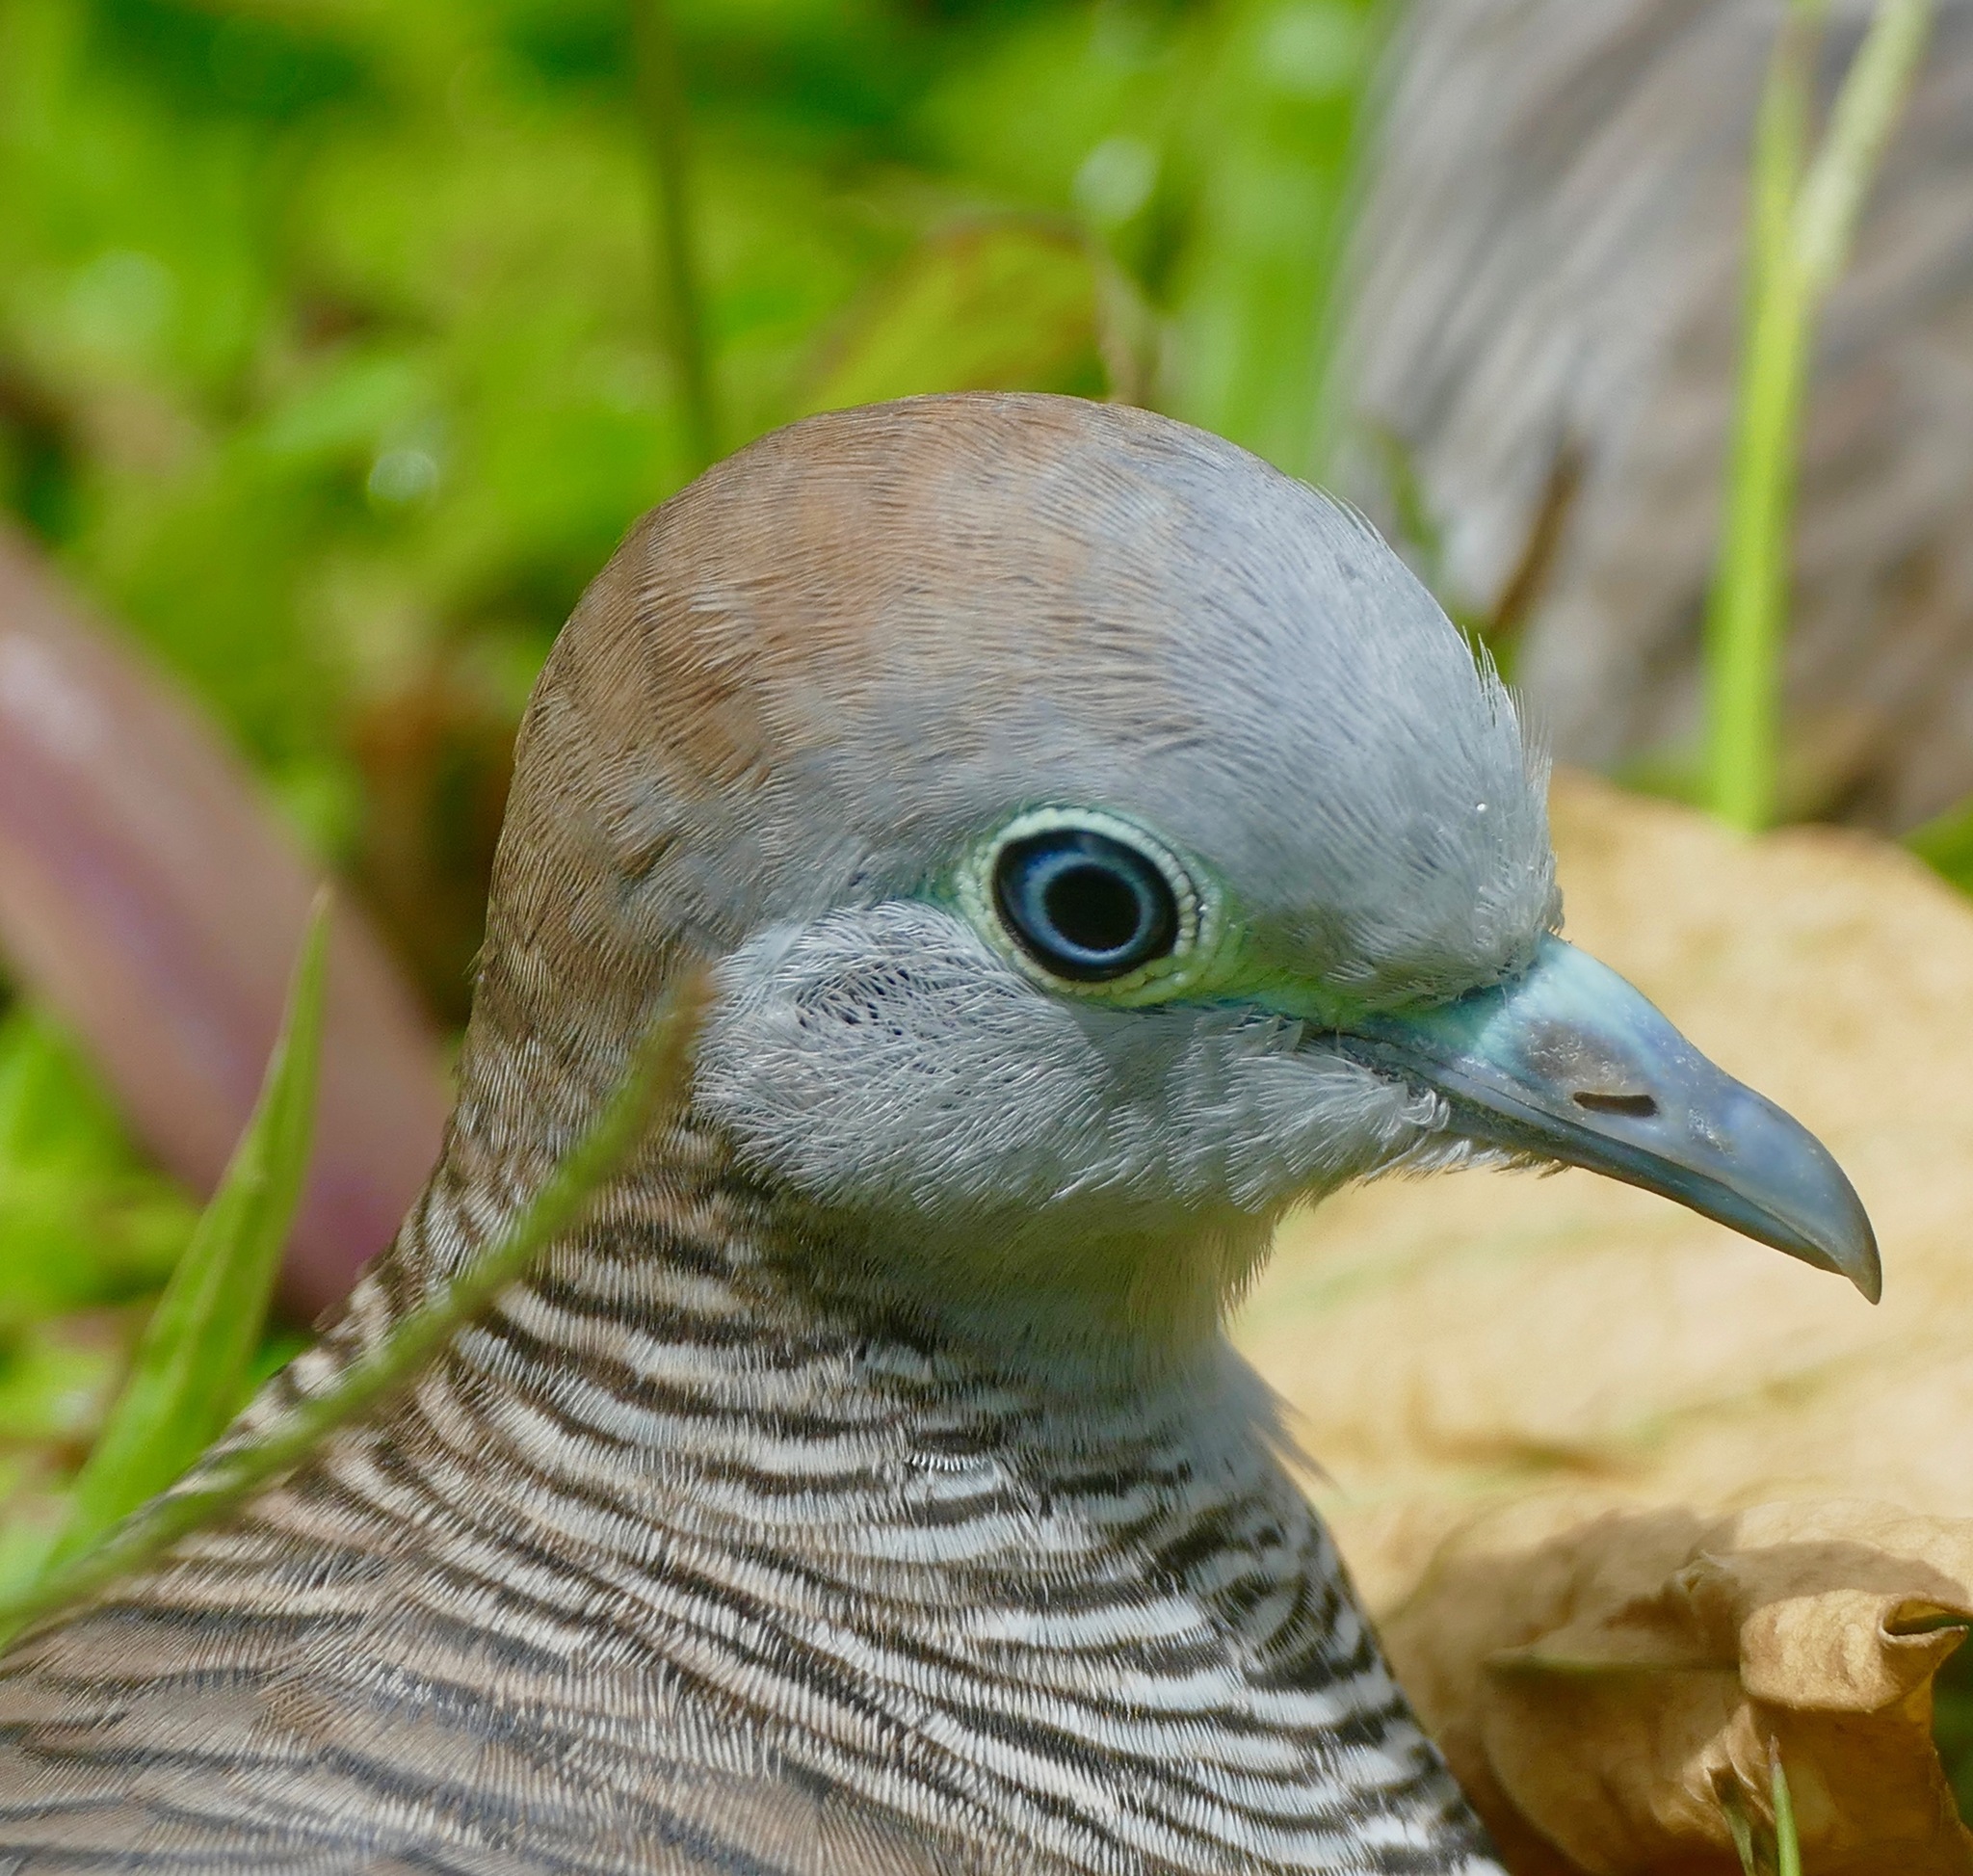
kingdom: Animalia
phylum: Chordata
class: Aves
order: Columbiformes
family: Columbidae
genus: Geopelia
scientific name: Geopelia striata
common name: Zebra dove
